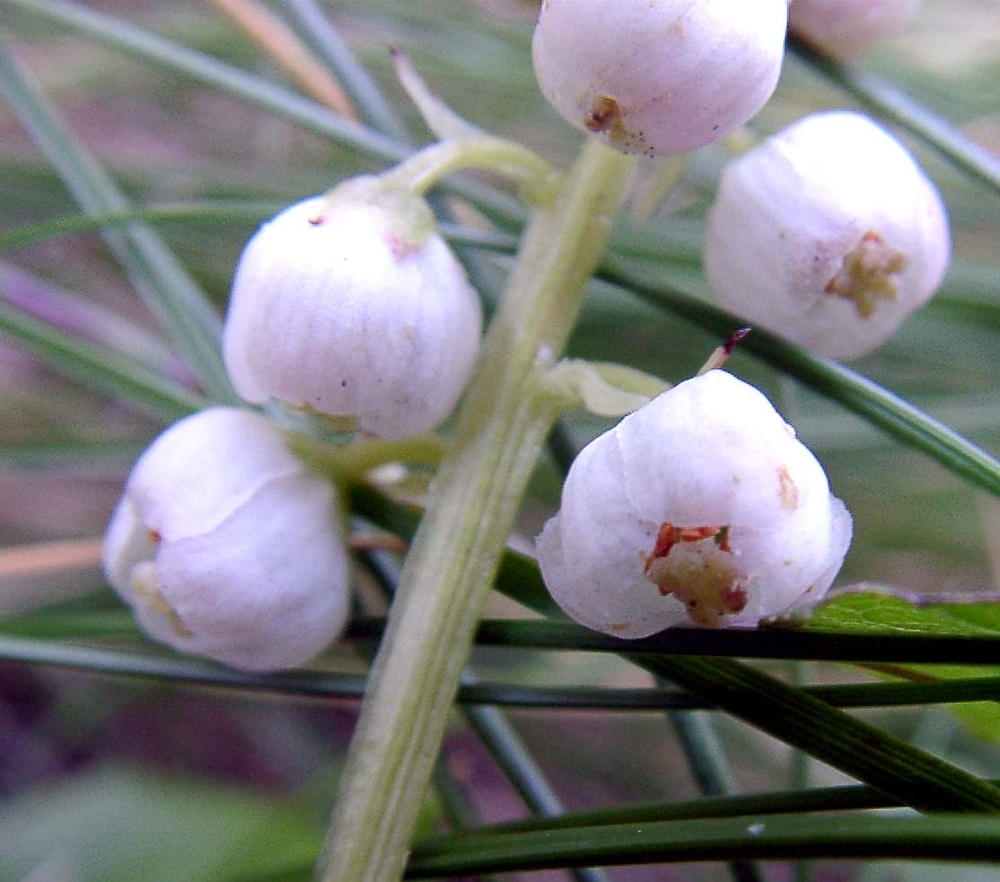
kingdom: Plantae
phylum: Tracheophyta
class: Magnoliopsida
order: Ericales
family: Ericaceae
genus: Pyrola
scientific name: Pyrola minor
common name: Common wintergreen
